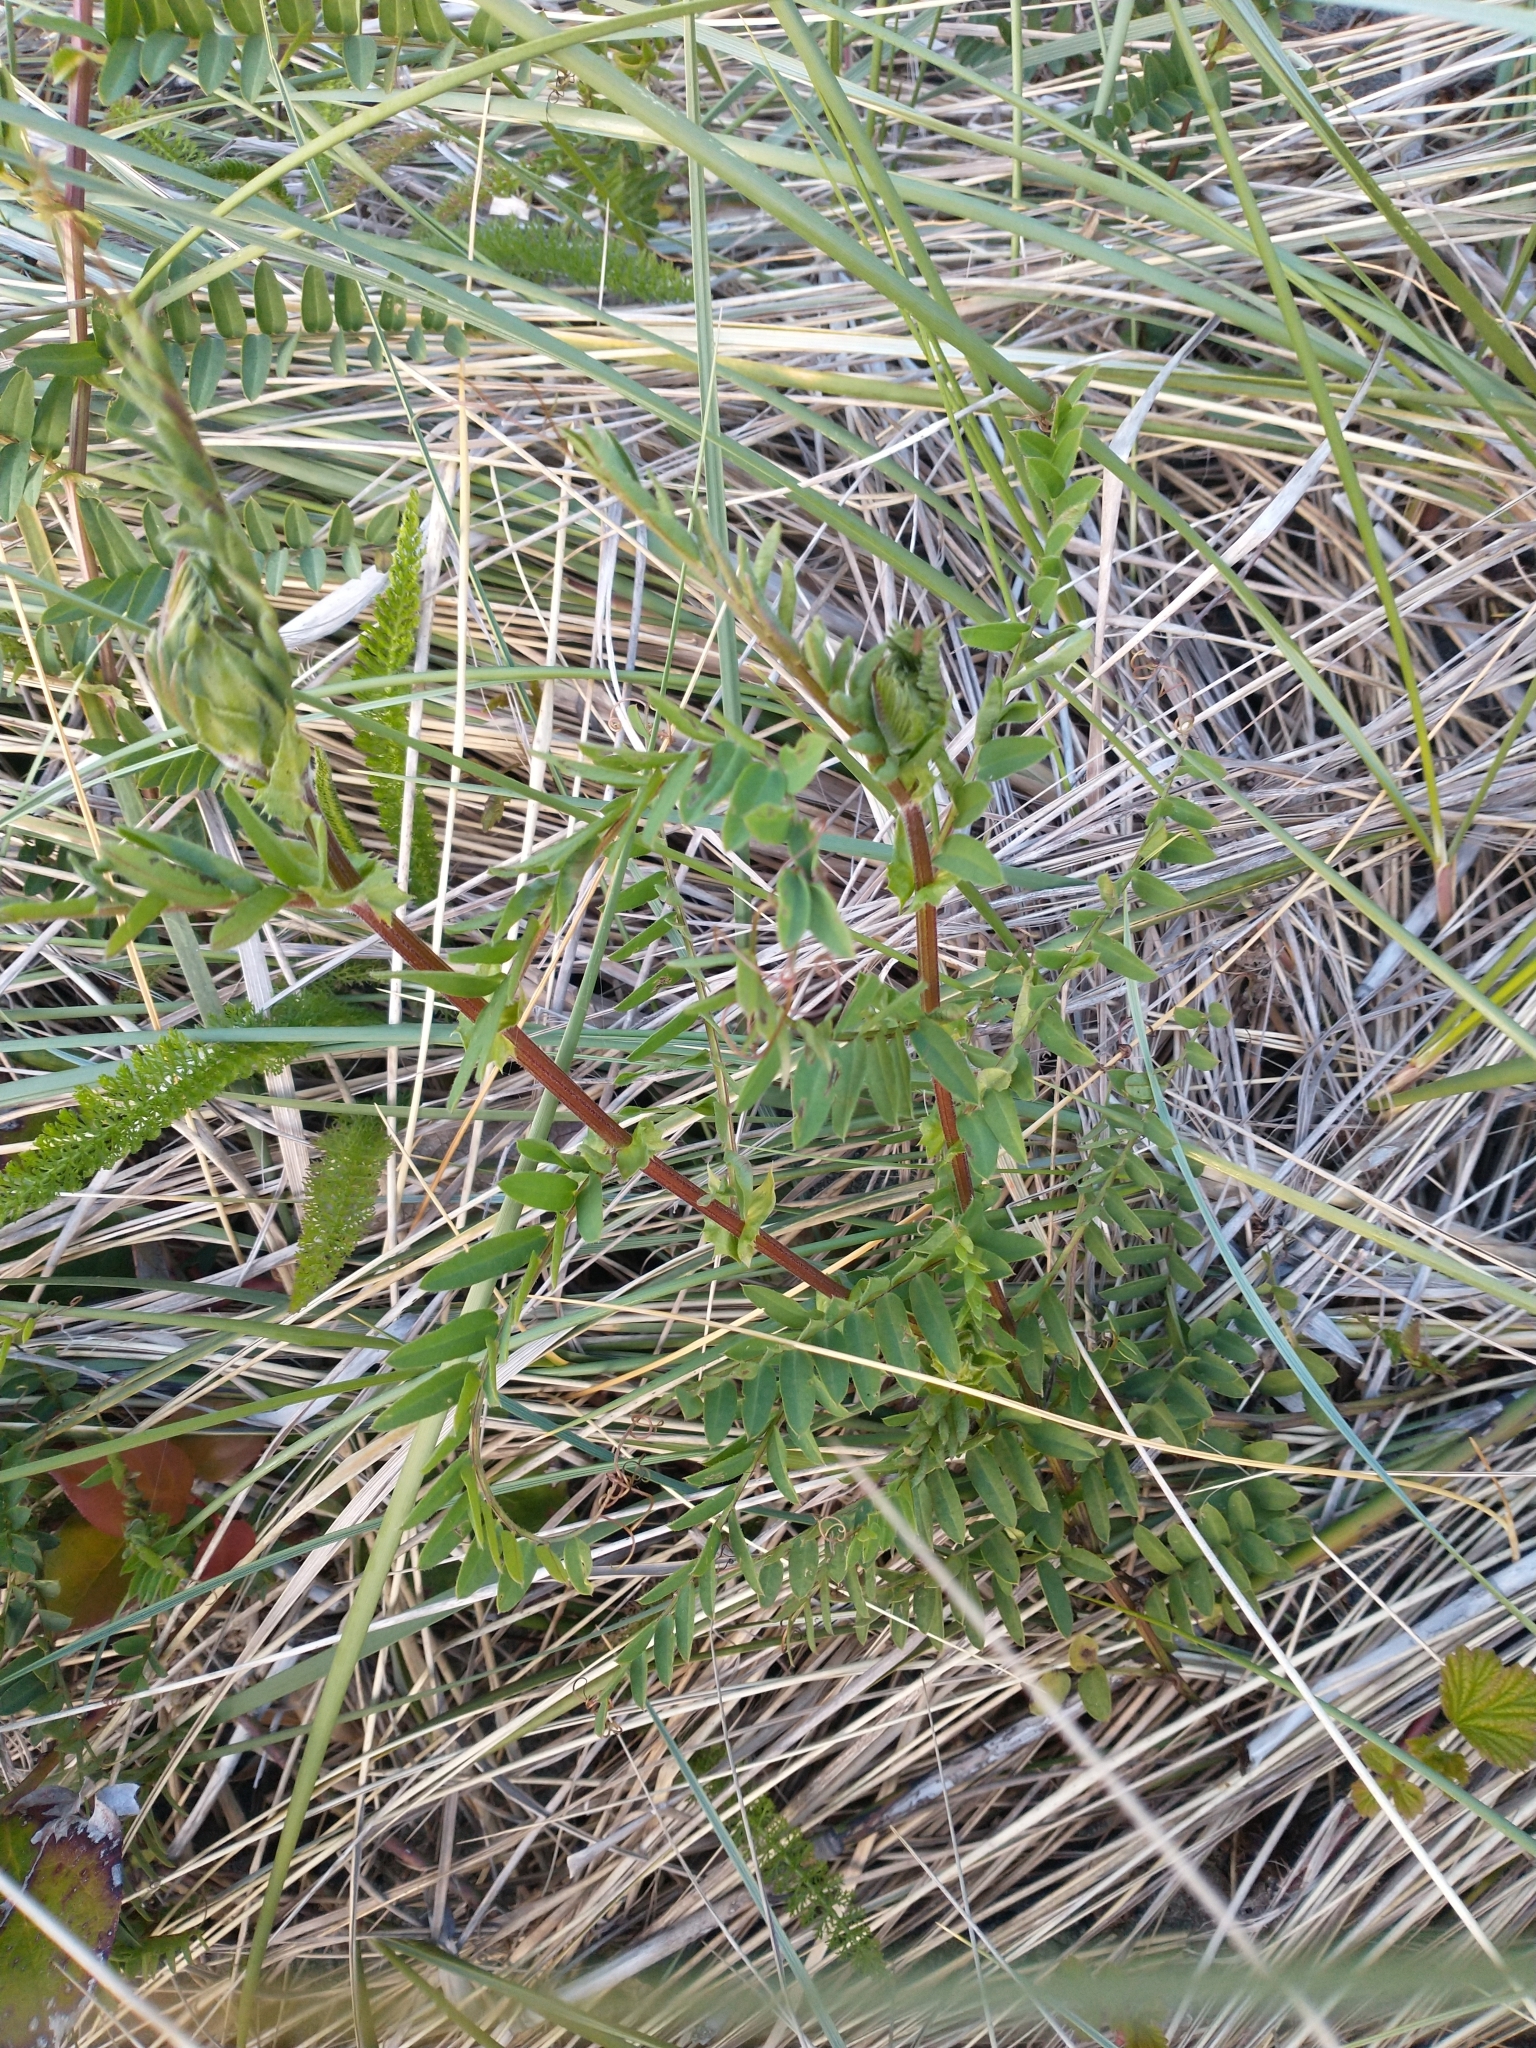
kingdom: Plantae
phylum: Tracheophyta
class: Magnoliopsida
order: Fabales
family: Fabaceae
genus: Vicia
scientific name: Vicia
